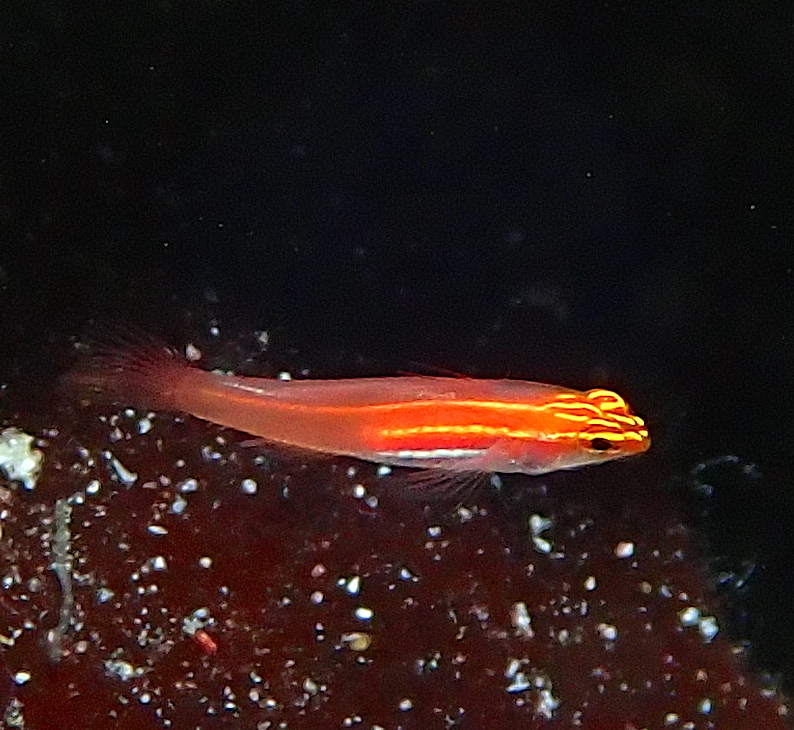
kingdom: Animalia
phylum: Chordata
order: Perciformes
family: Gobiidae
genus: Eviota
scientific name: Eviota atriventris
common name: Blackbelly dwarfgoby
